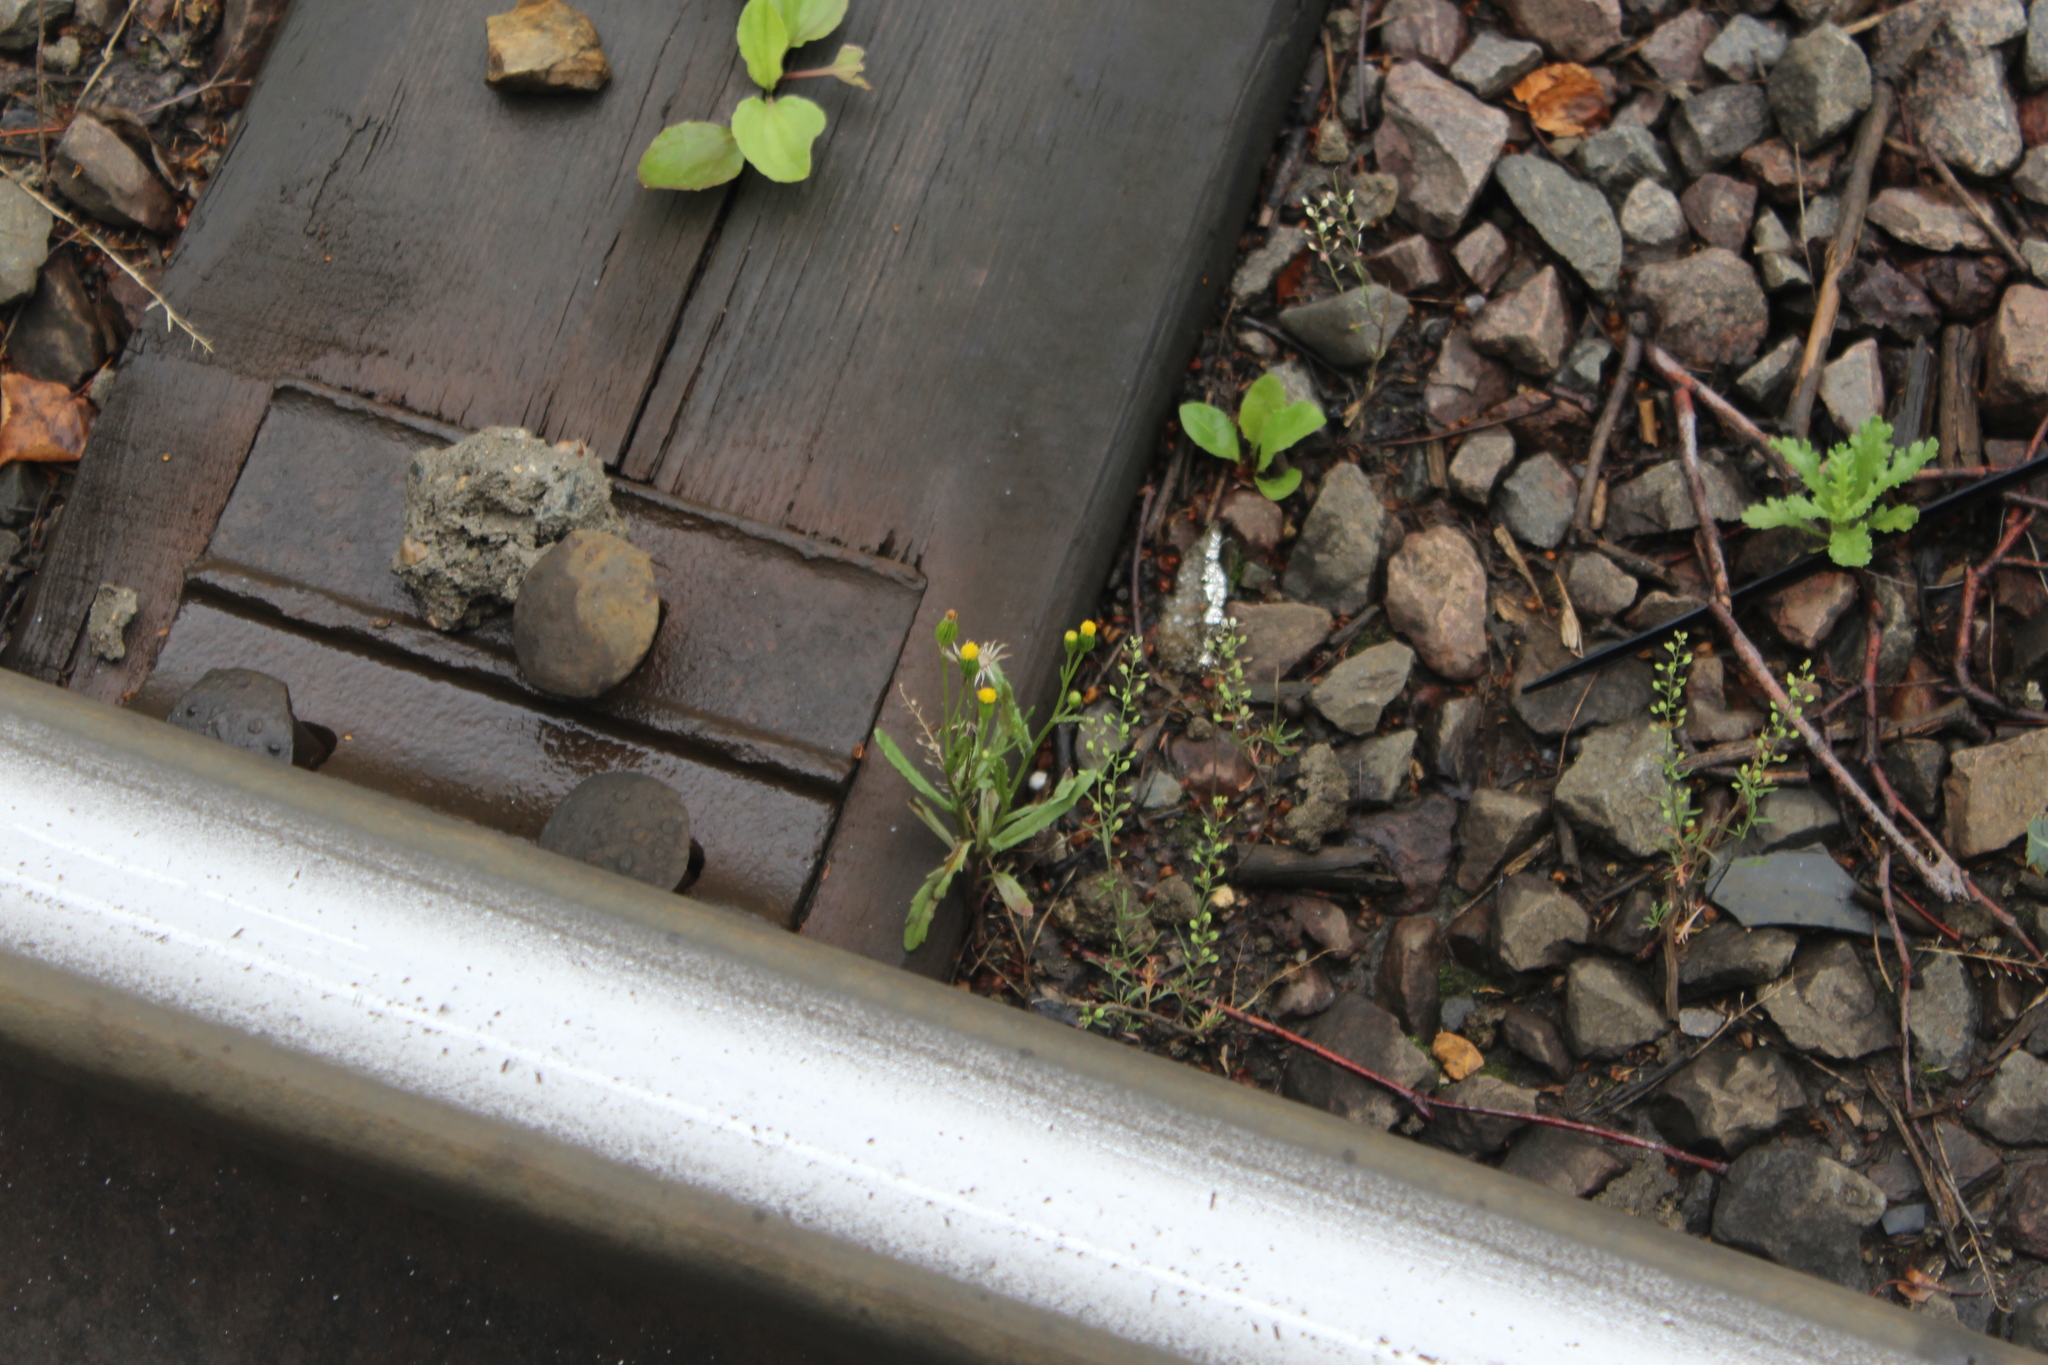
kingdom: Plantae
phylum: Tracheophyta
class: Magnoliopsida
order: Asterales
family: Asteraceae
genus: Senecio
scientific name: Senecio dubitabilis
